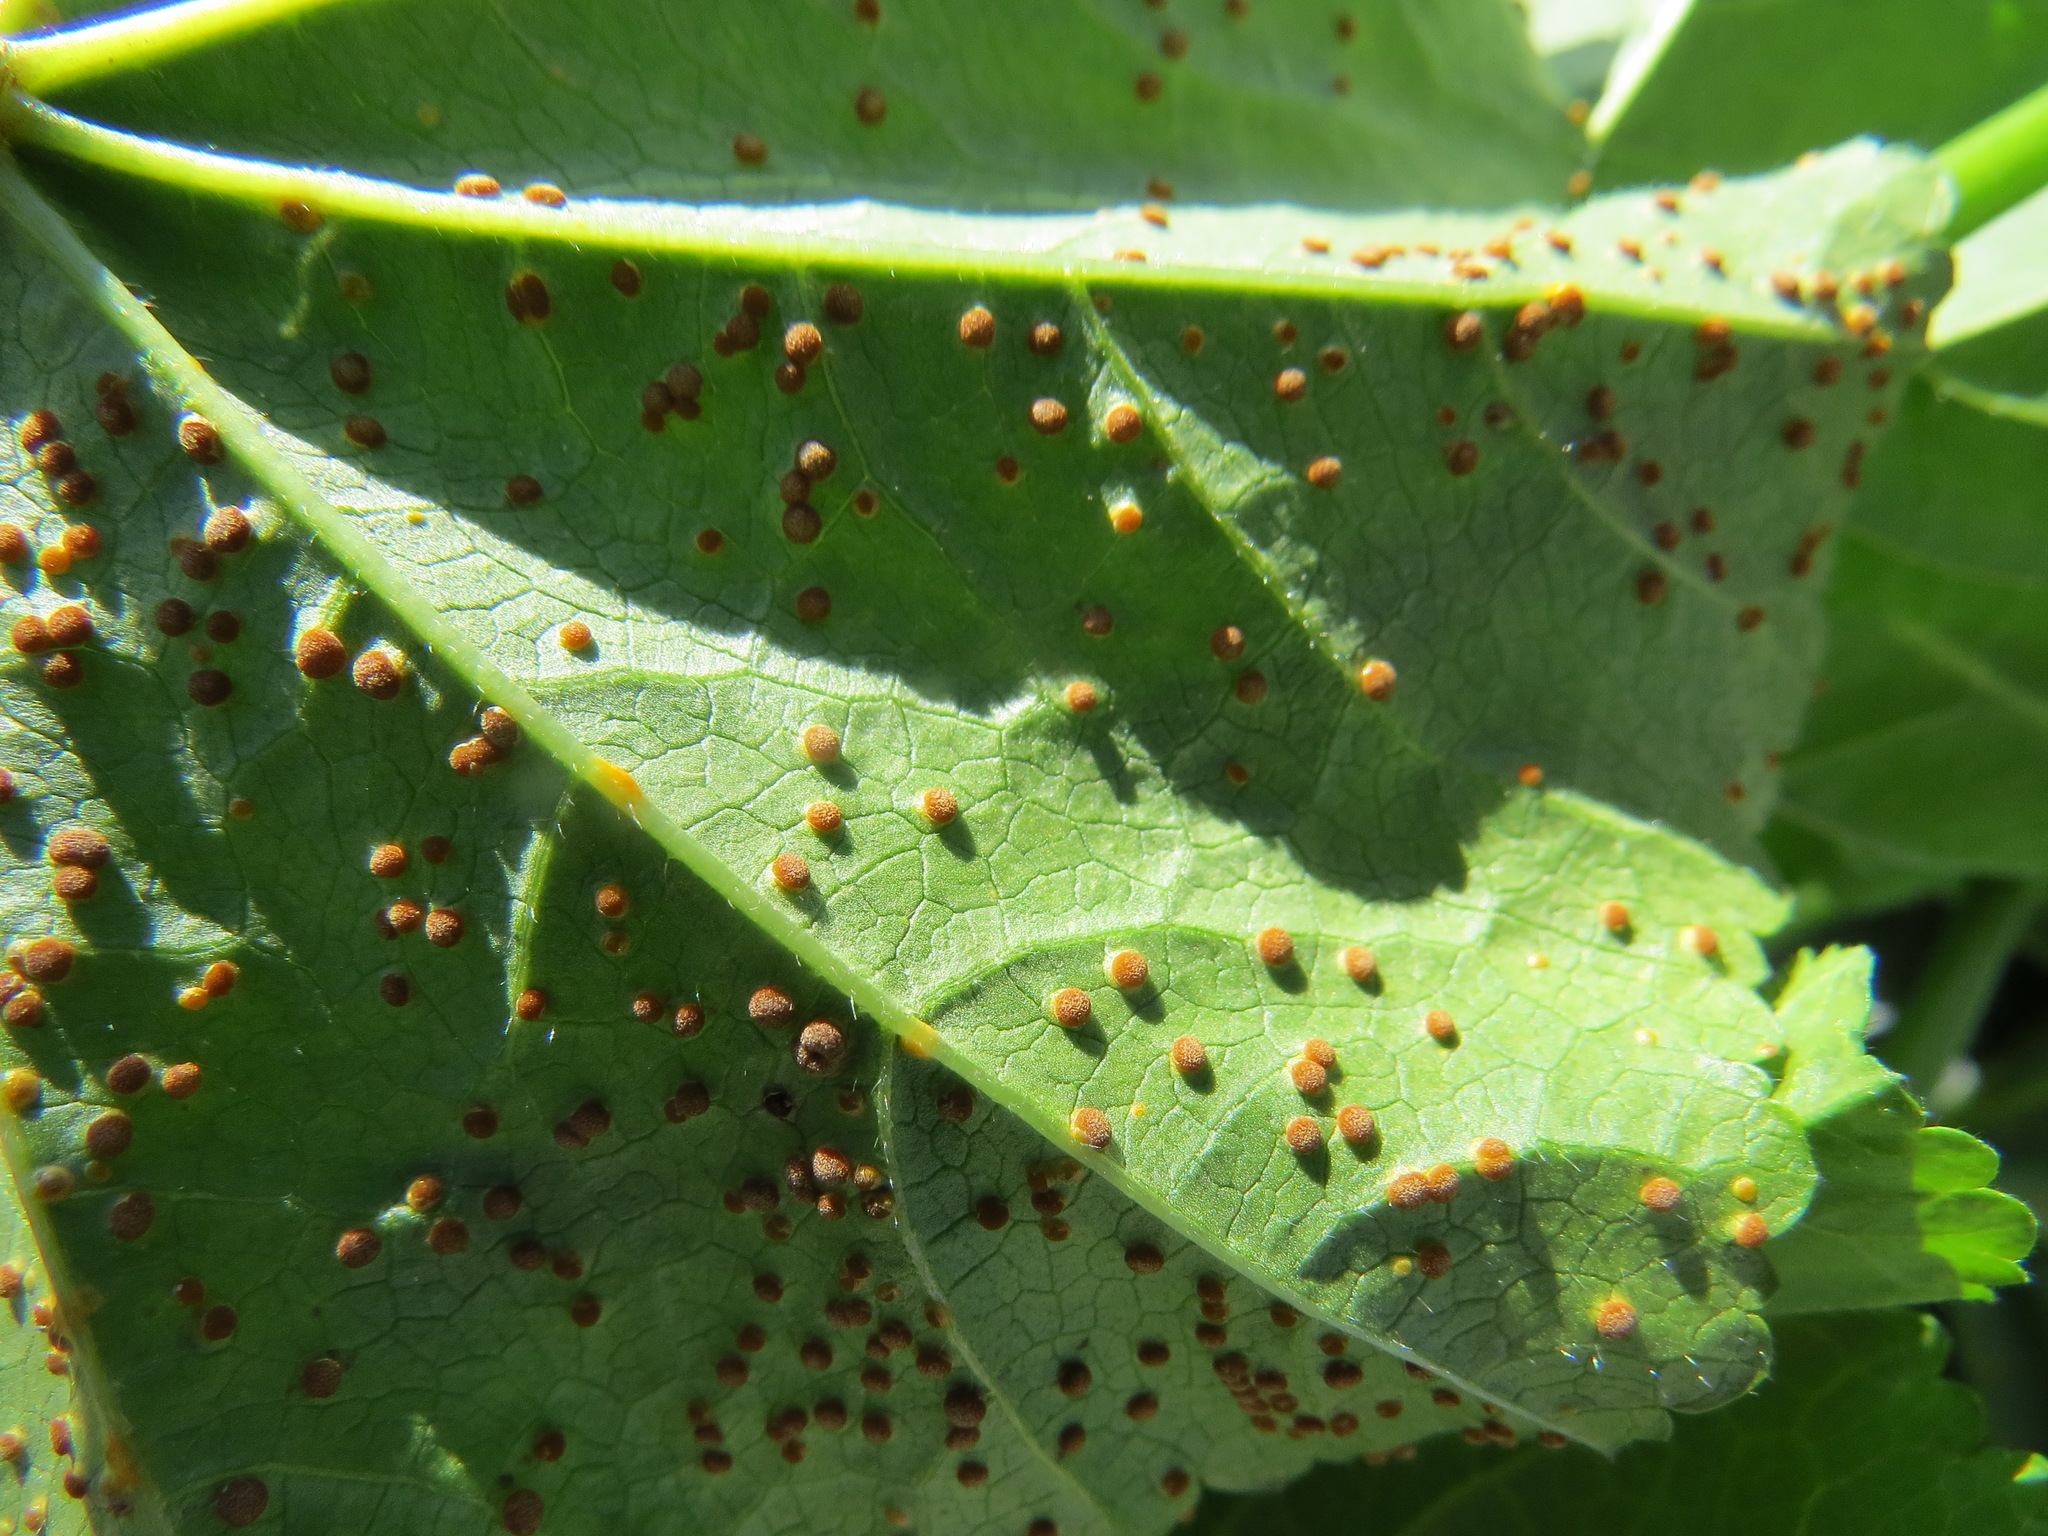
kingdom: Fungi
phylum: Basidiomycota
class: Pucciniomycetes
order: Pucciniales
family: Pucciniaceae
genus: Puccinia
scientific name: Puccinia malvacearum
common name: Hollyhock rust
